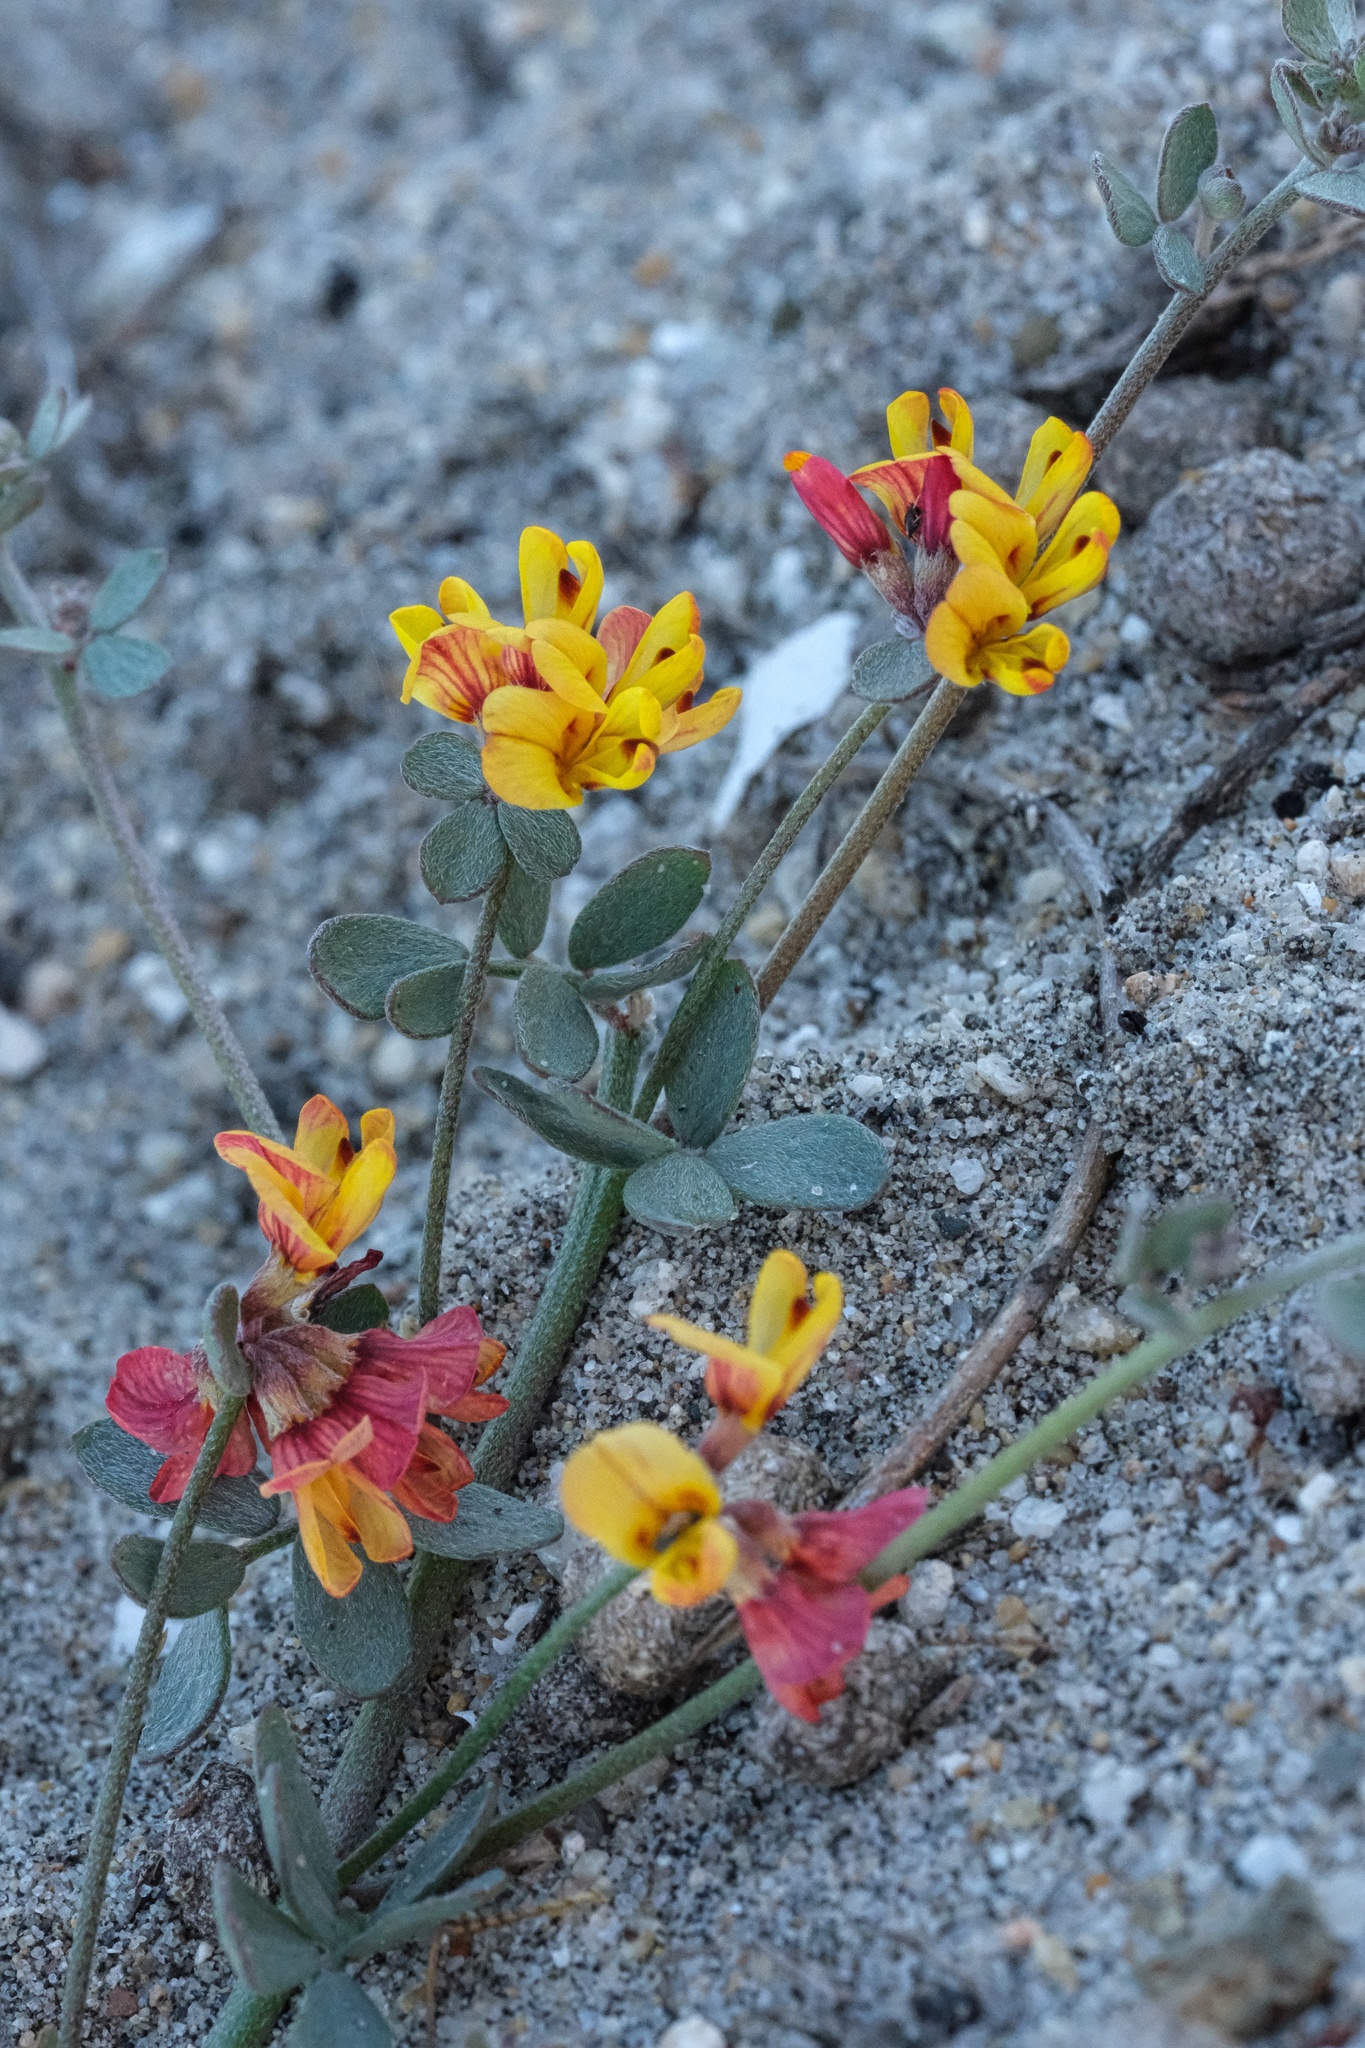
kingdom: Plantae
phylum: Tracheophyta
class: Magnoliopsida
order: Fabales
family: Fabaceae
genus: Acmispon
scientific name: Acmispon prostratus
